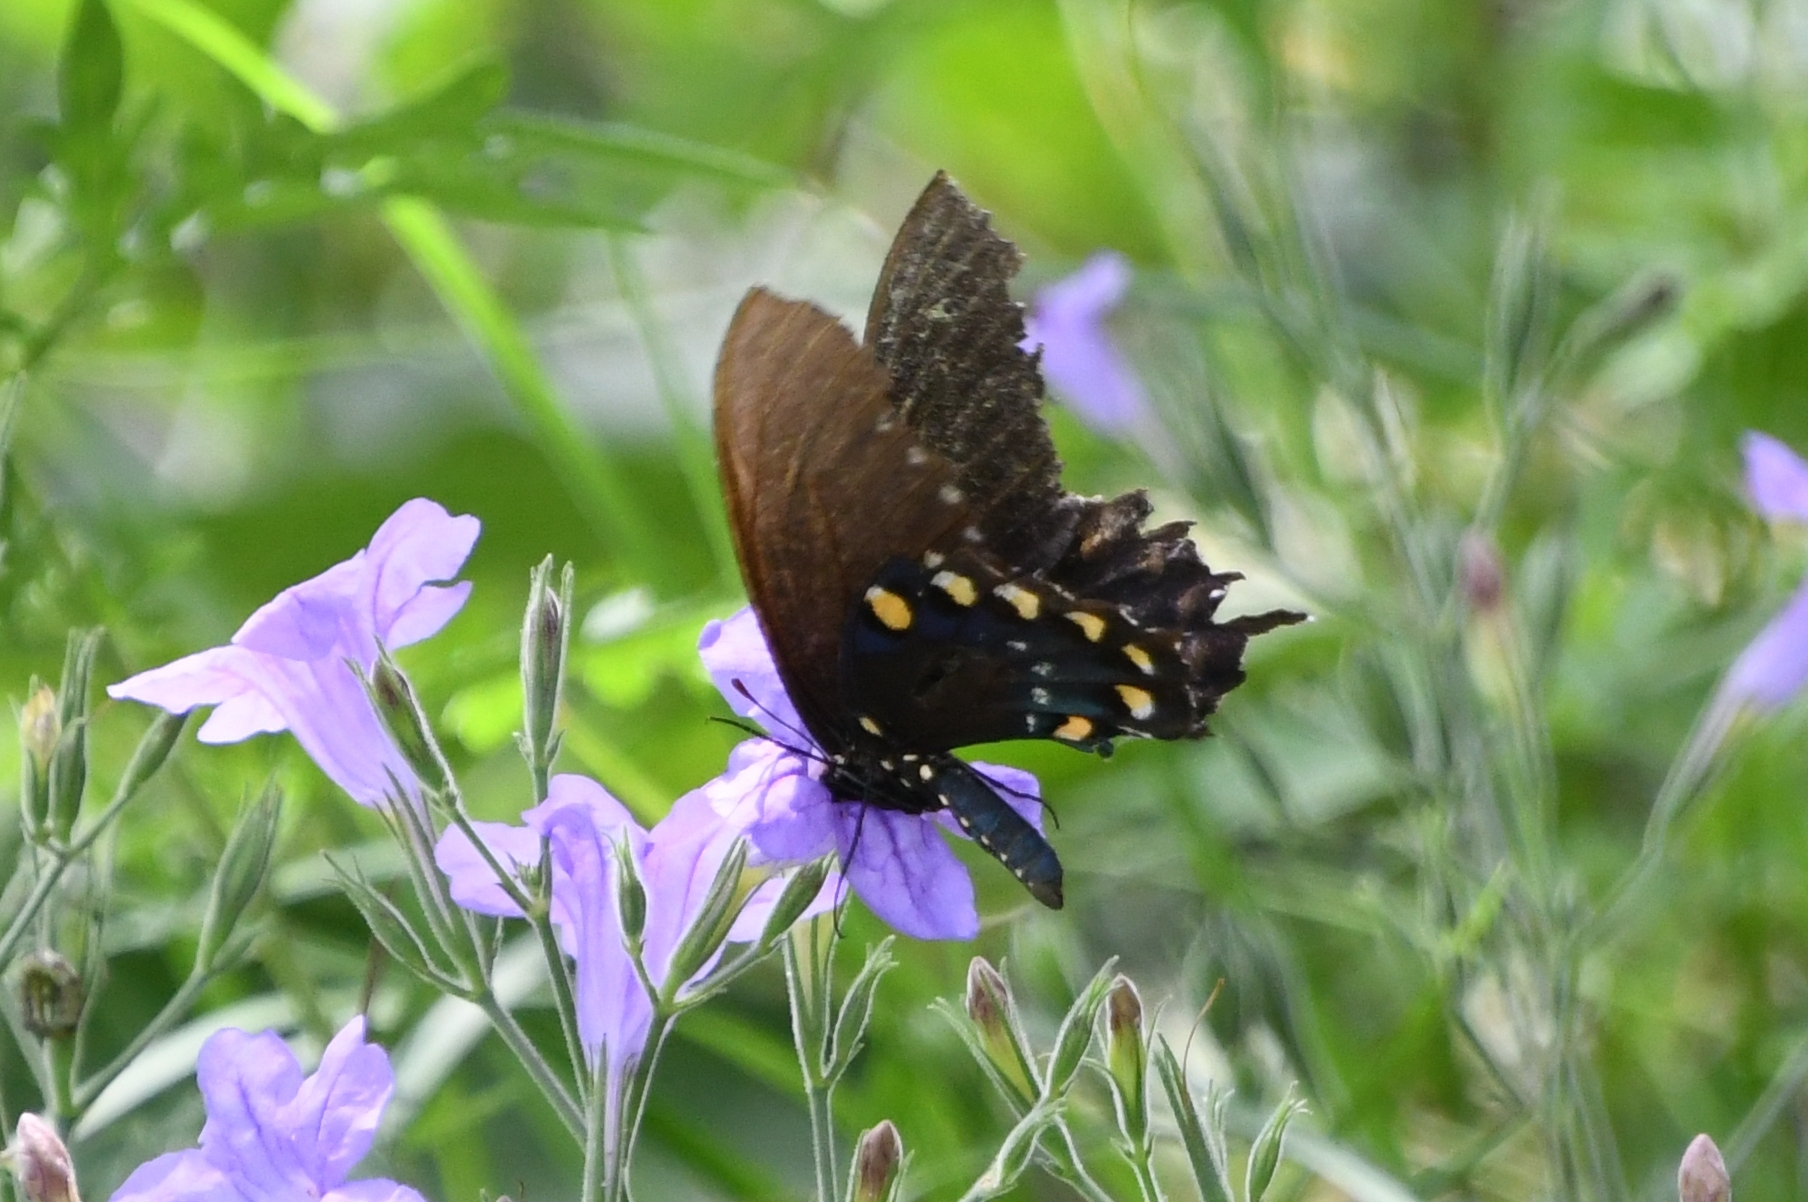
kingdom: Animalia
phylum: Arthropoda
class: Insecta
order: Lepidoptera
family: Papilionidae
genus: Battus
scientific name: Battus philenor
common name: Pipevine swallowtail
